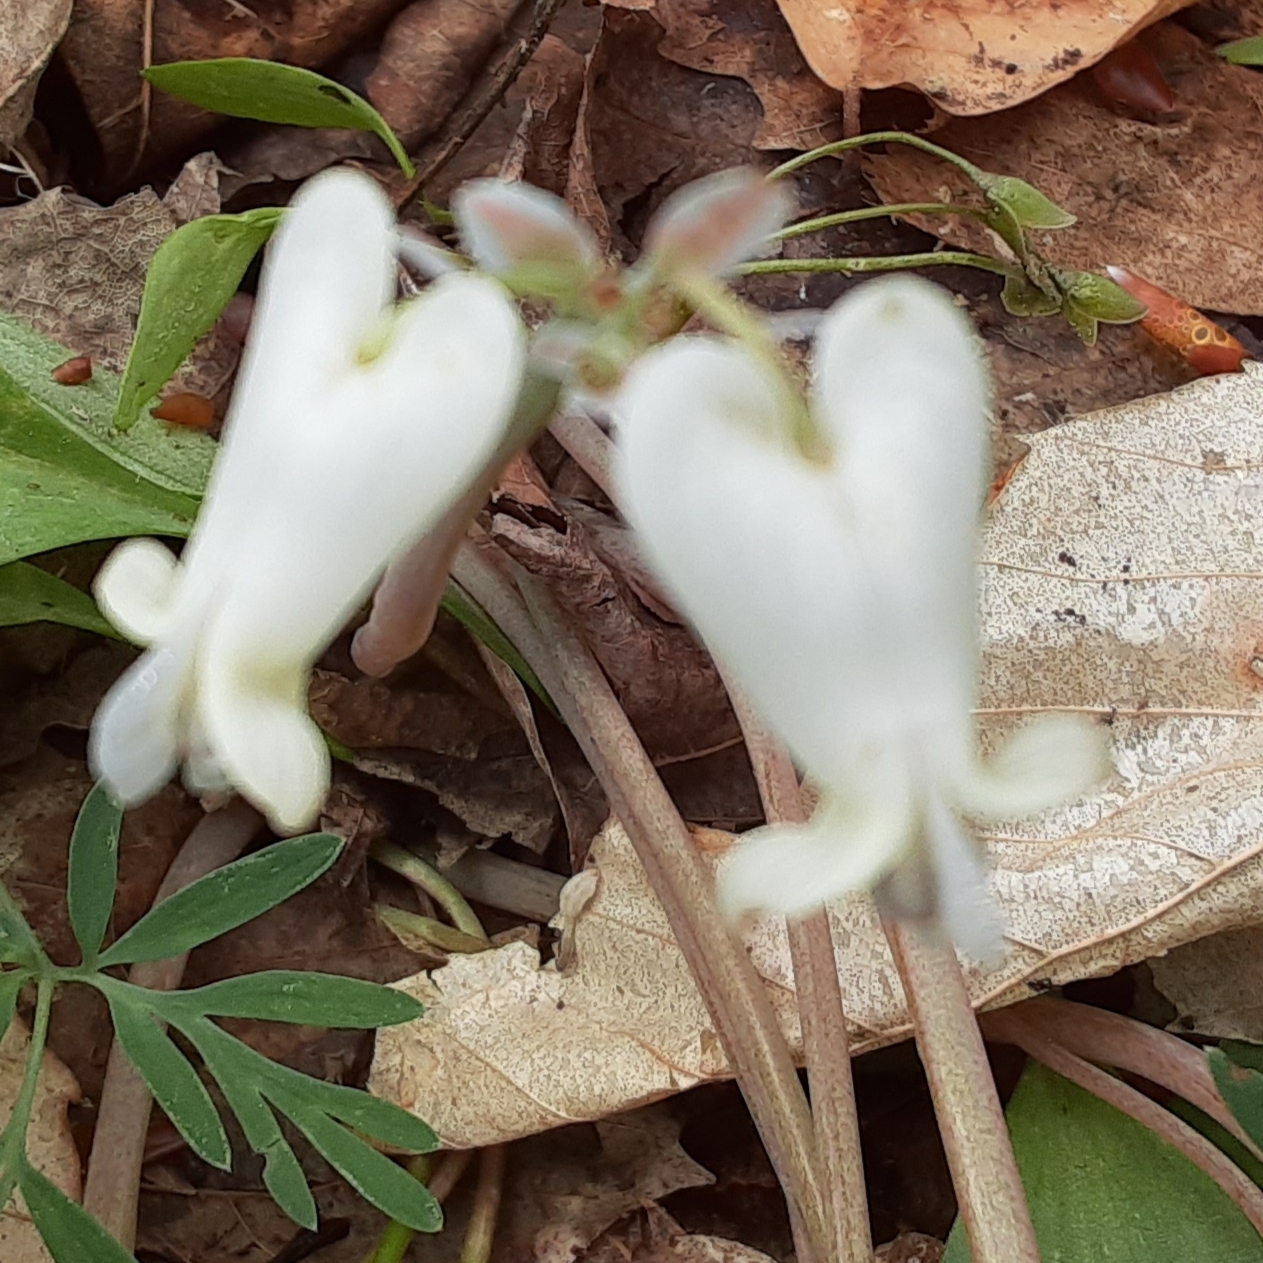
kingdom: Plantae
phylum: Tracheophyta
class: Magnoliopsida
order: Ranunculales
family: Papaveraceae
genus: Dicentra
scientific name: Dicentra canadensis
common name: Squirrel-corn
